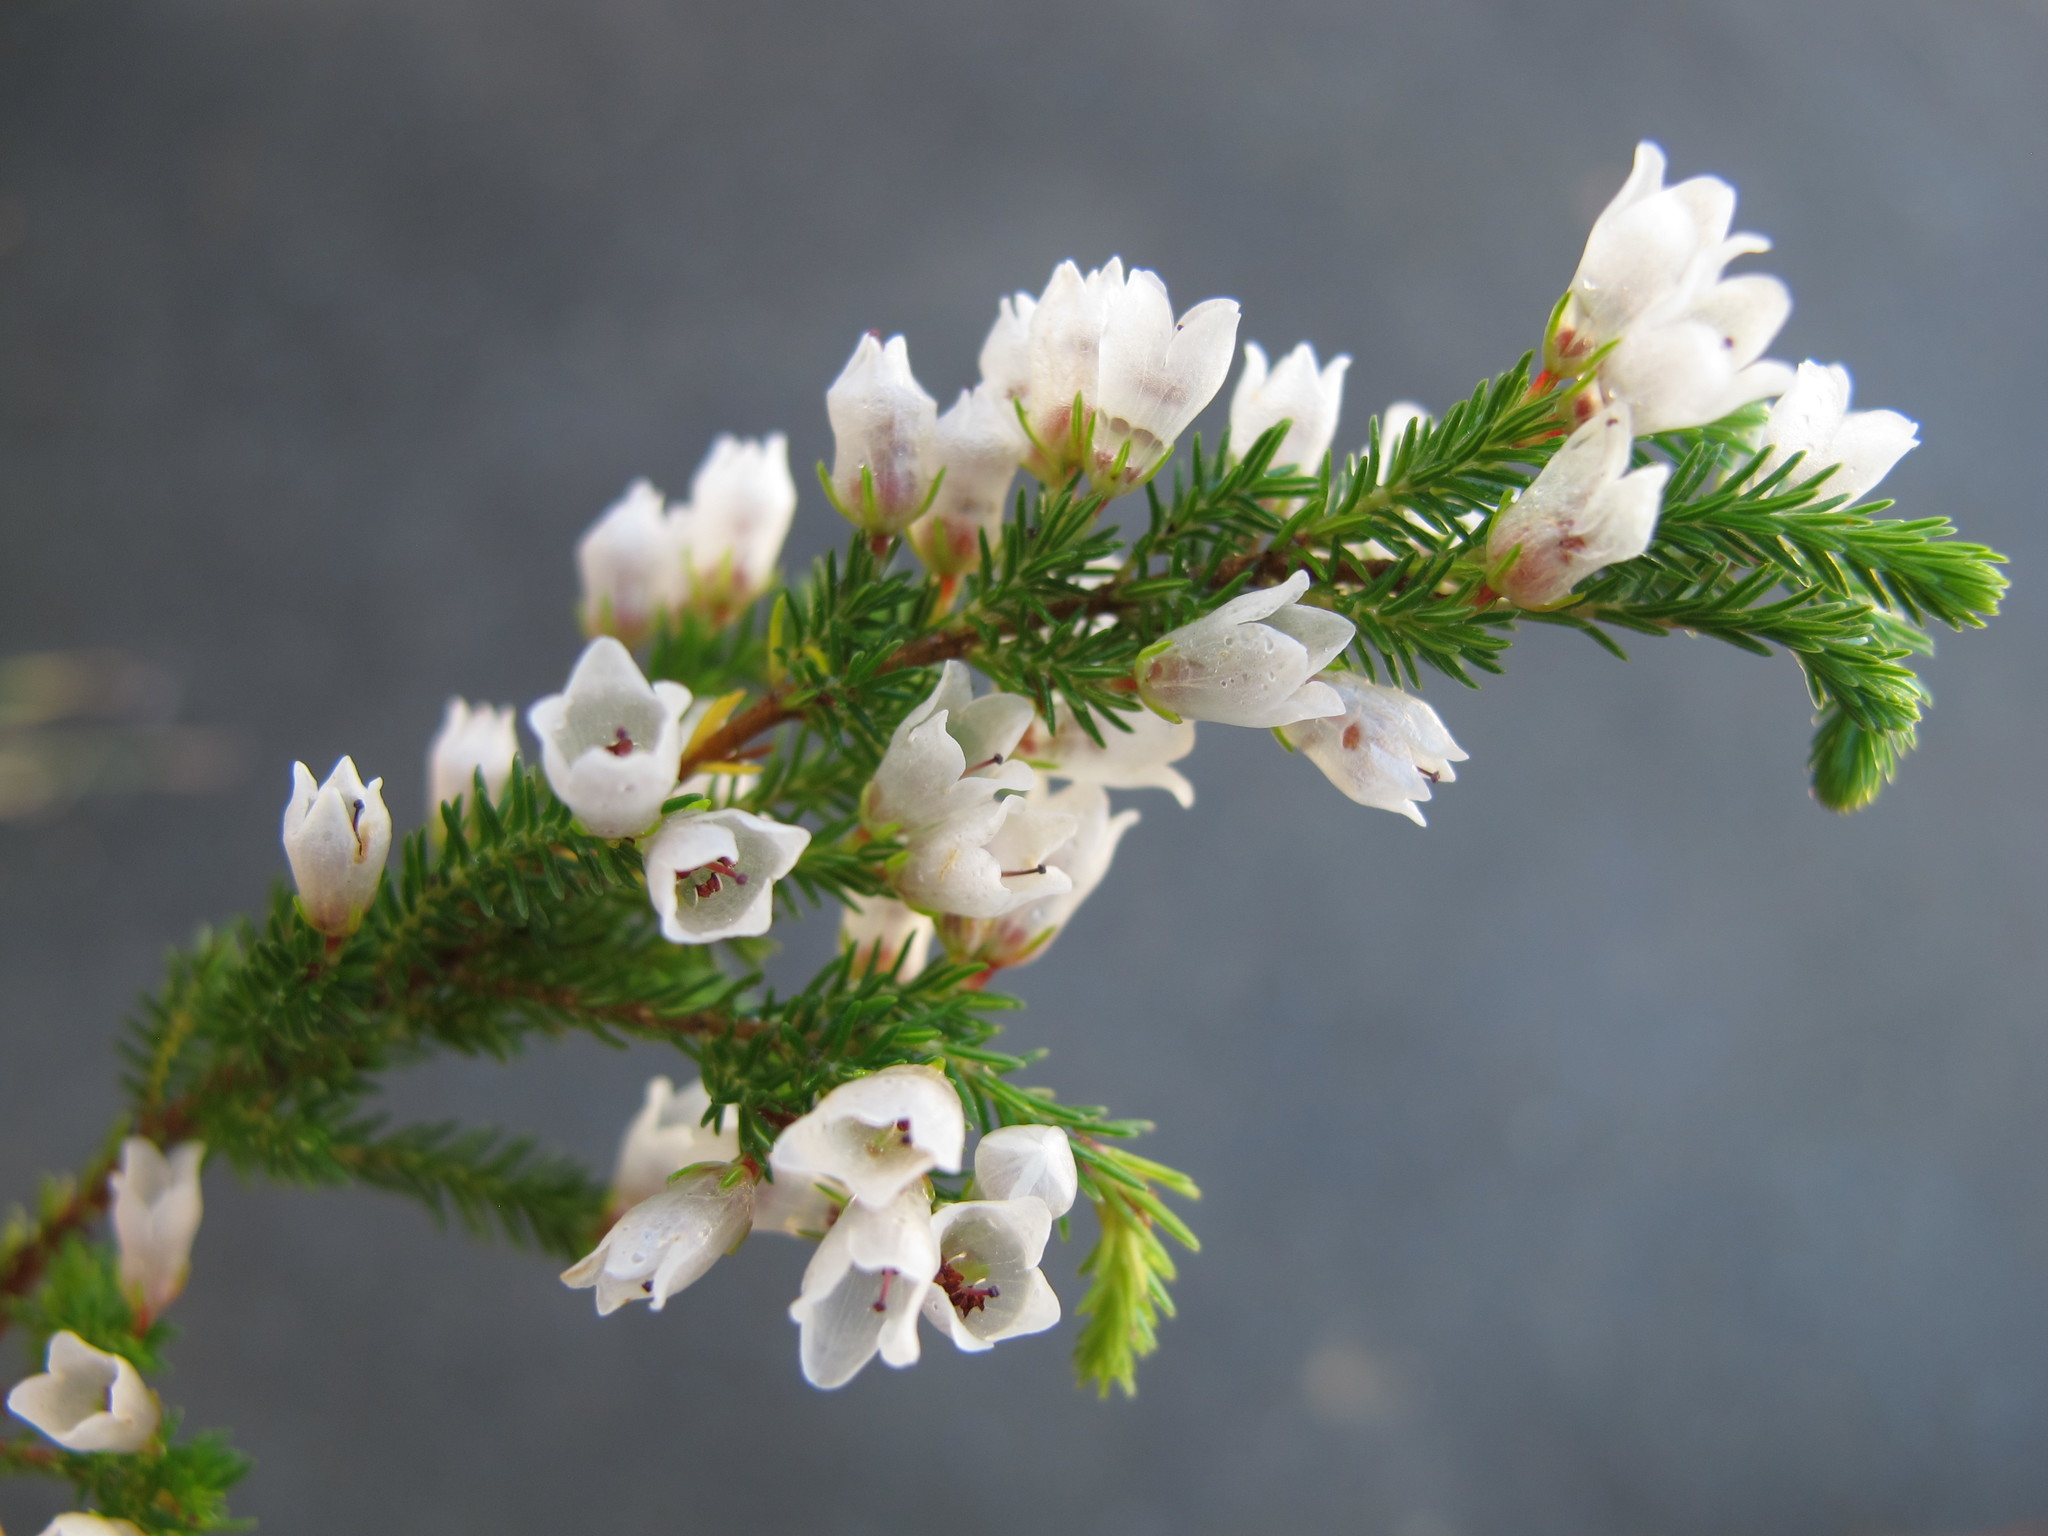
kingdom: Plantae
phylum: Tracheophyta
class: Magnoliopsida
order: Ericales
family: Ericaceae
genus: Erica
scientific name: Erica plena
